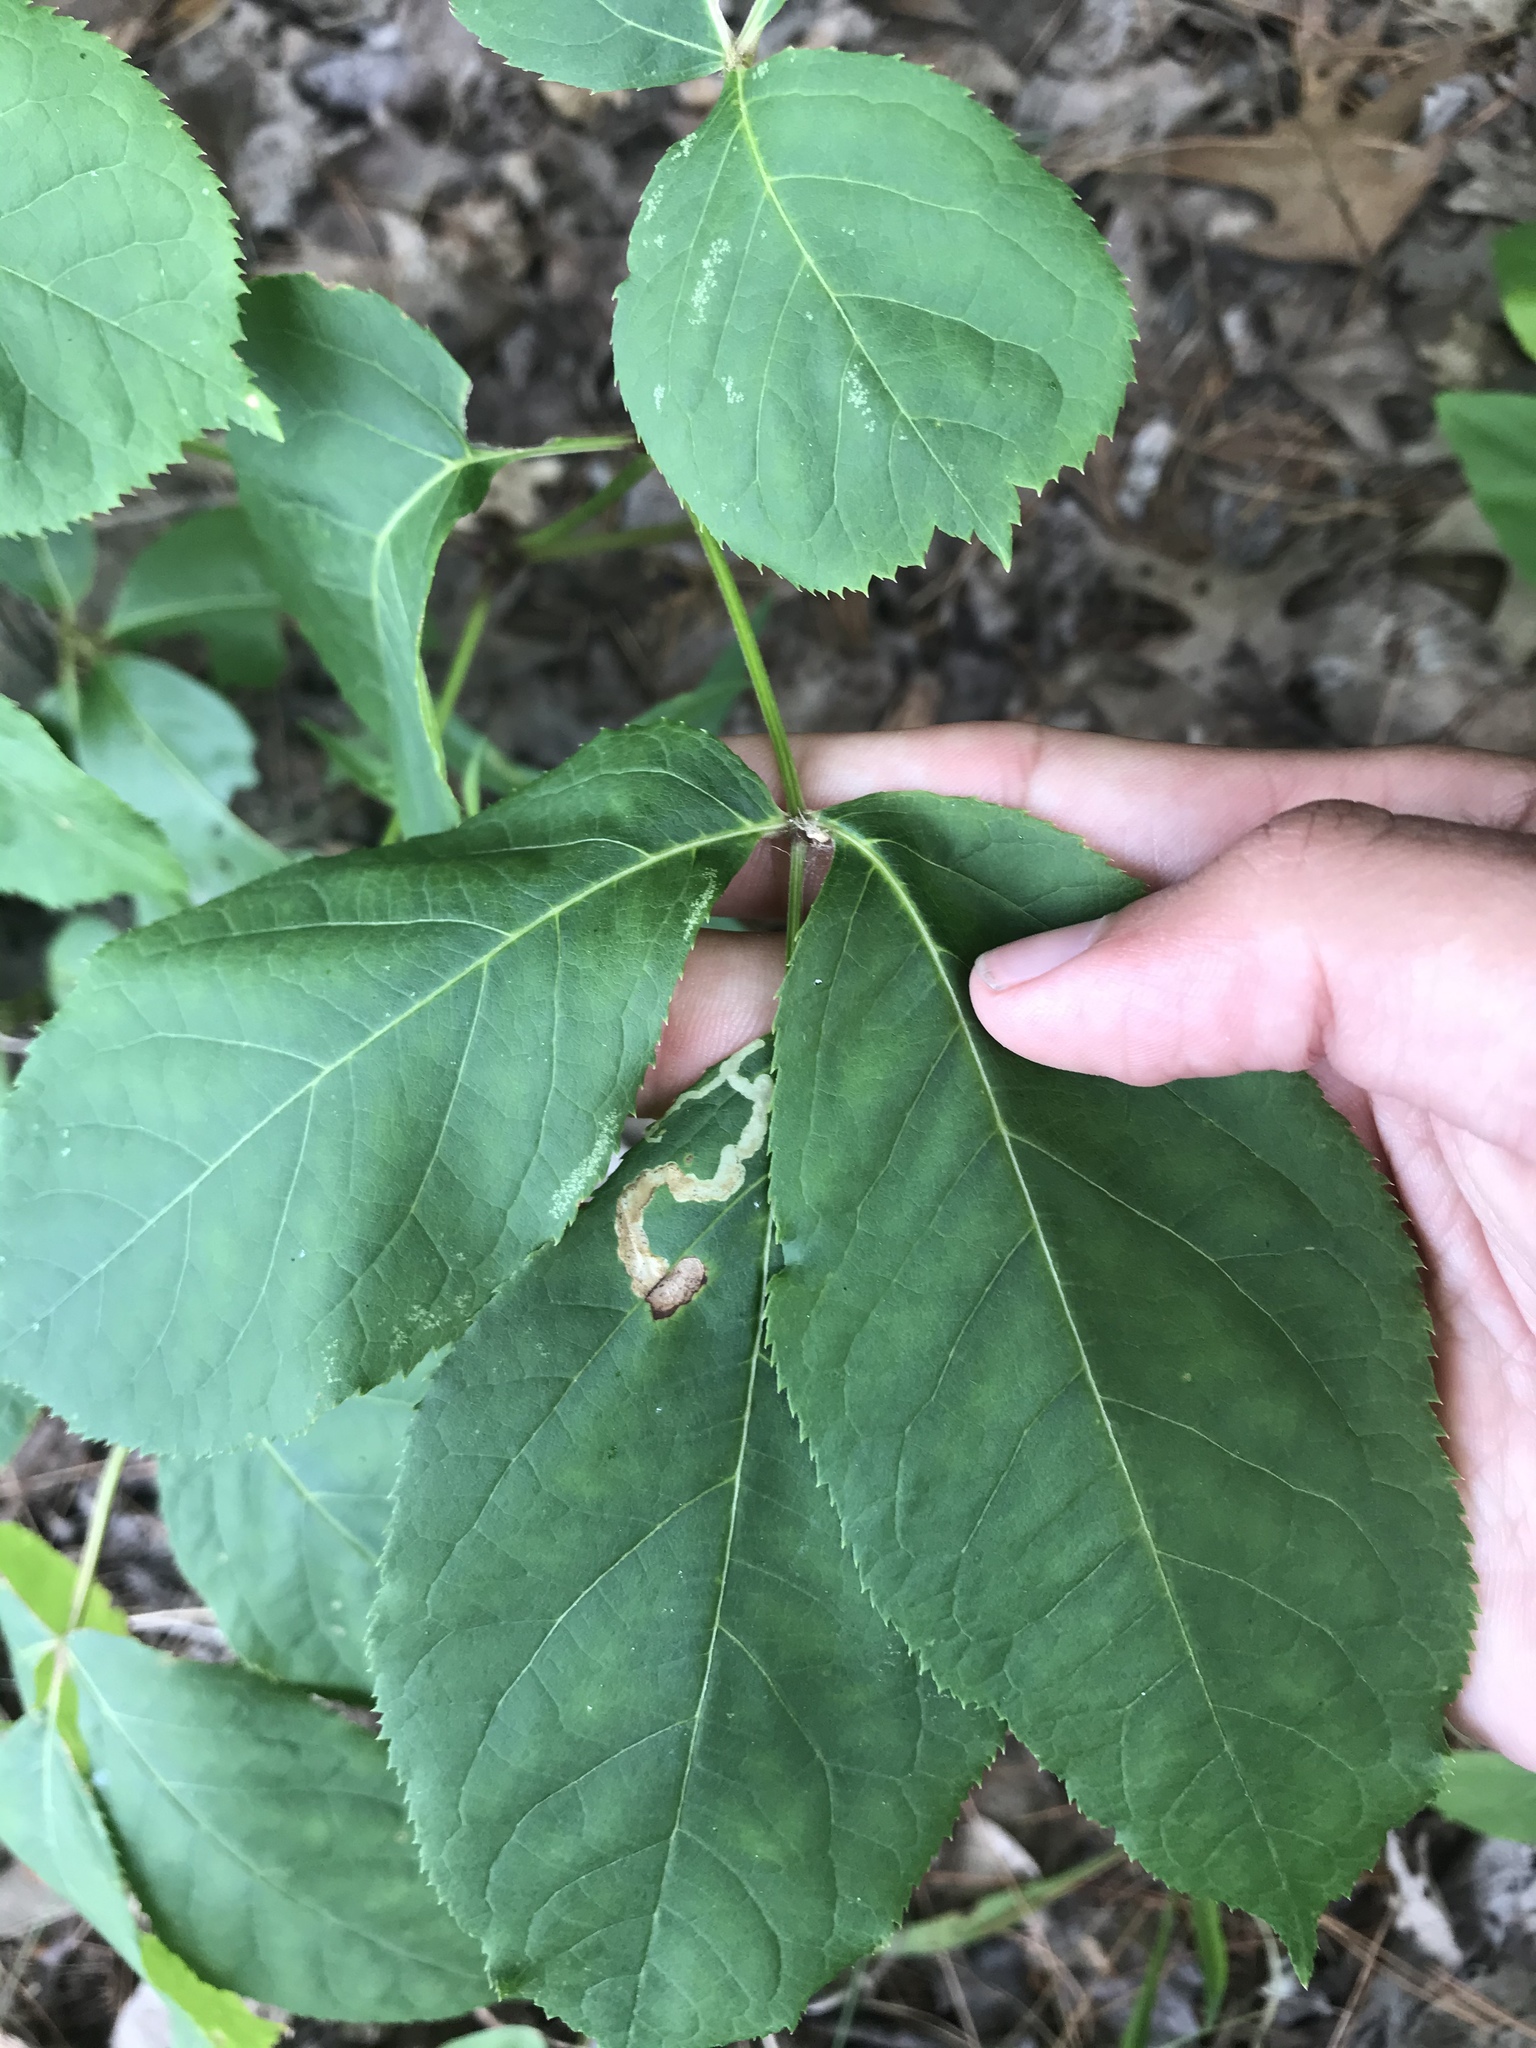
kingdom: Animalia
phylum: Arthropoda
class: Insecta
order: Diptera
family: Agromyzidae
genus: Phytomyza
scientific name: Phytomyza aralivora
